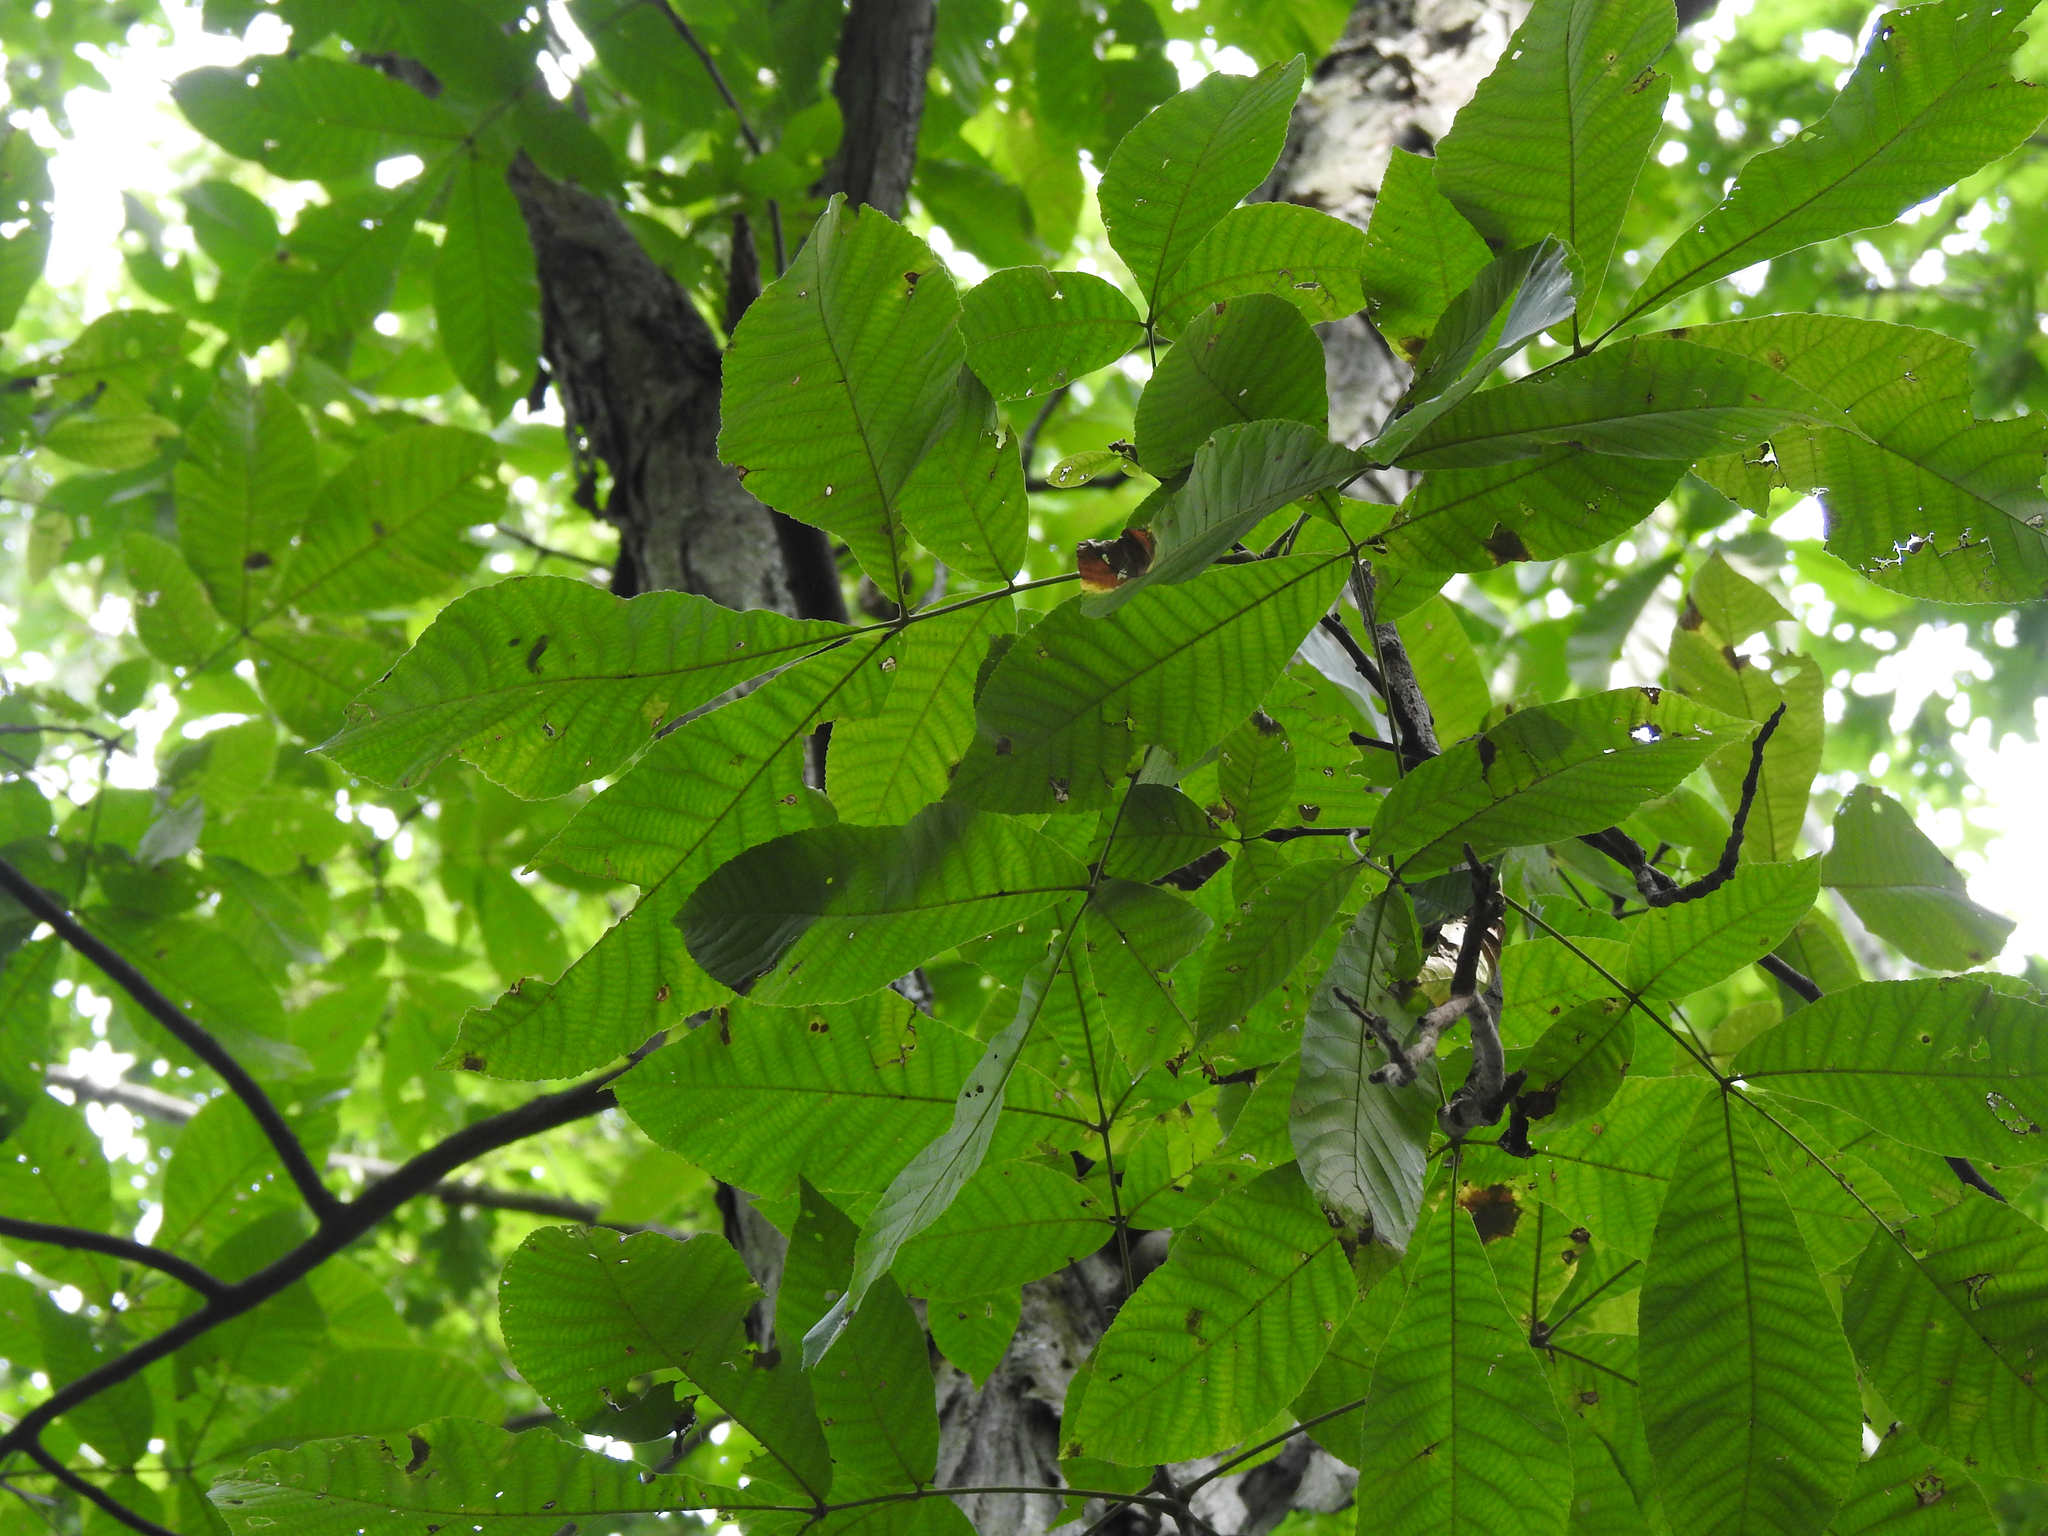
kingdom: Plantae
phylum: Tracheophyta
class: Magnoliopsida
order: Fagales
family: Juglandaceae
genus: Carya
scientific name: Carya ovata
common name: Shagbark hickory
